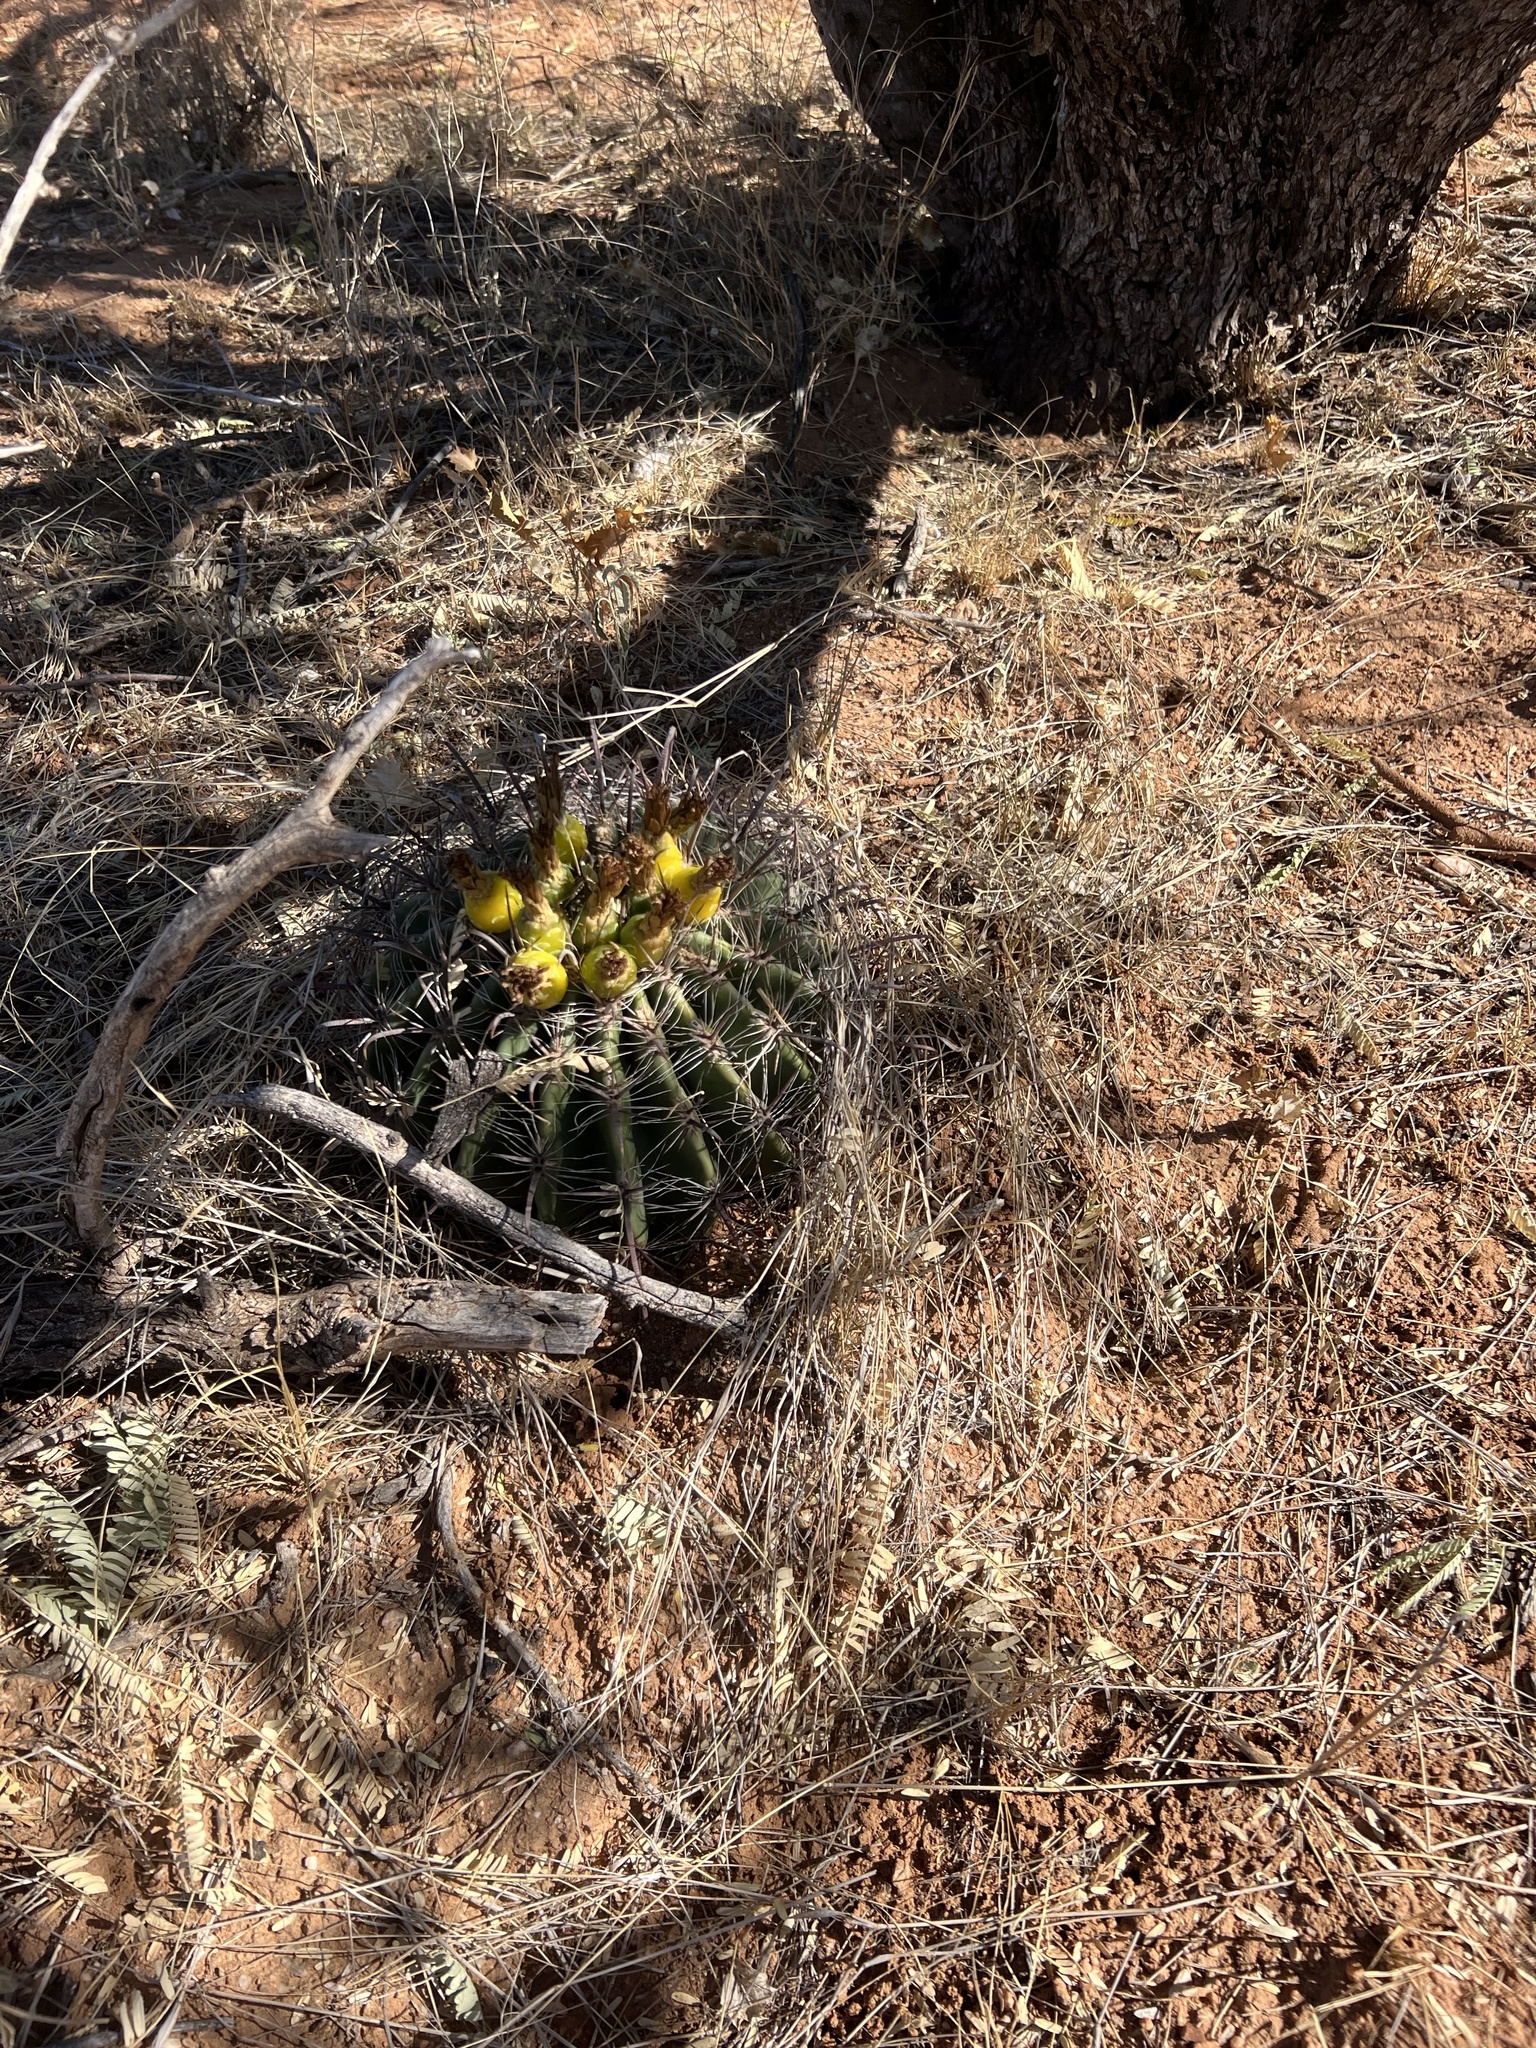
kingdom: Plantae
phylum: Tracheophyta
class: Magnoliopsida
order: Caryophyllales
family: Cactaceae
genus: Ferocactus
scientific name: Ferocactus wislizeni
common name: Candy barrel cactus
